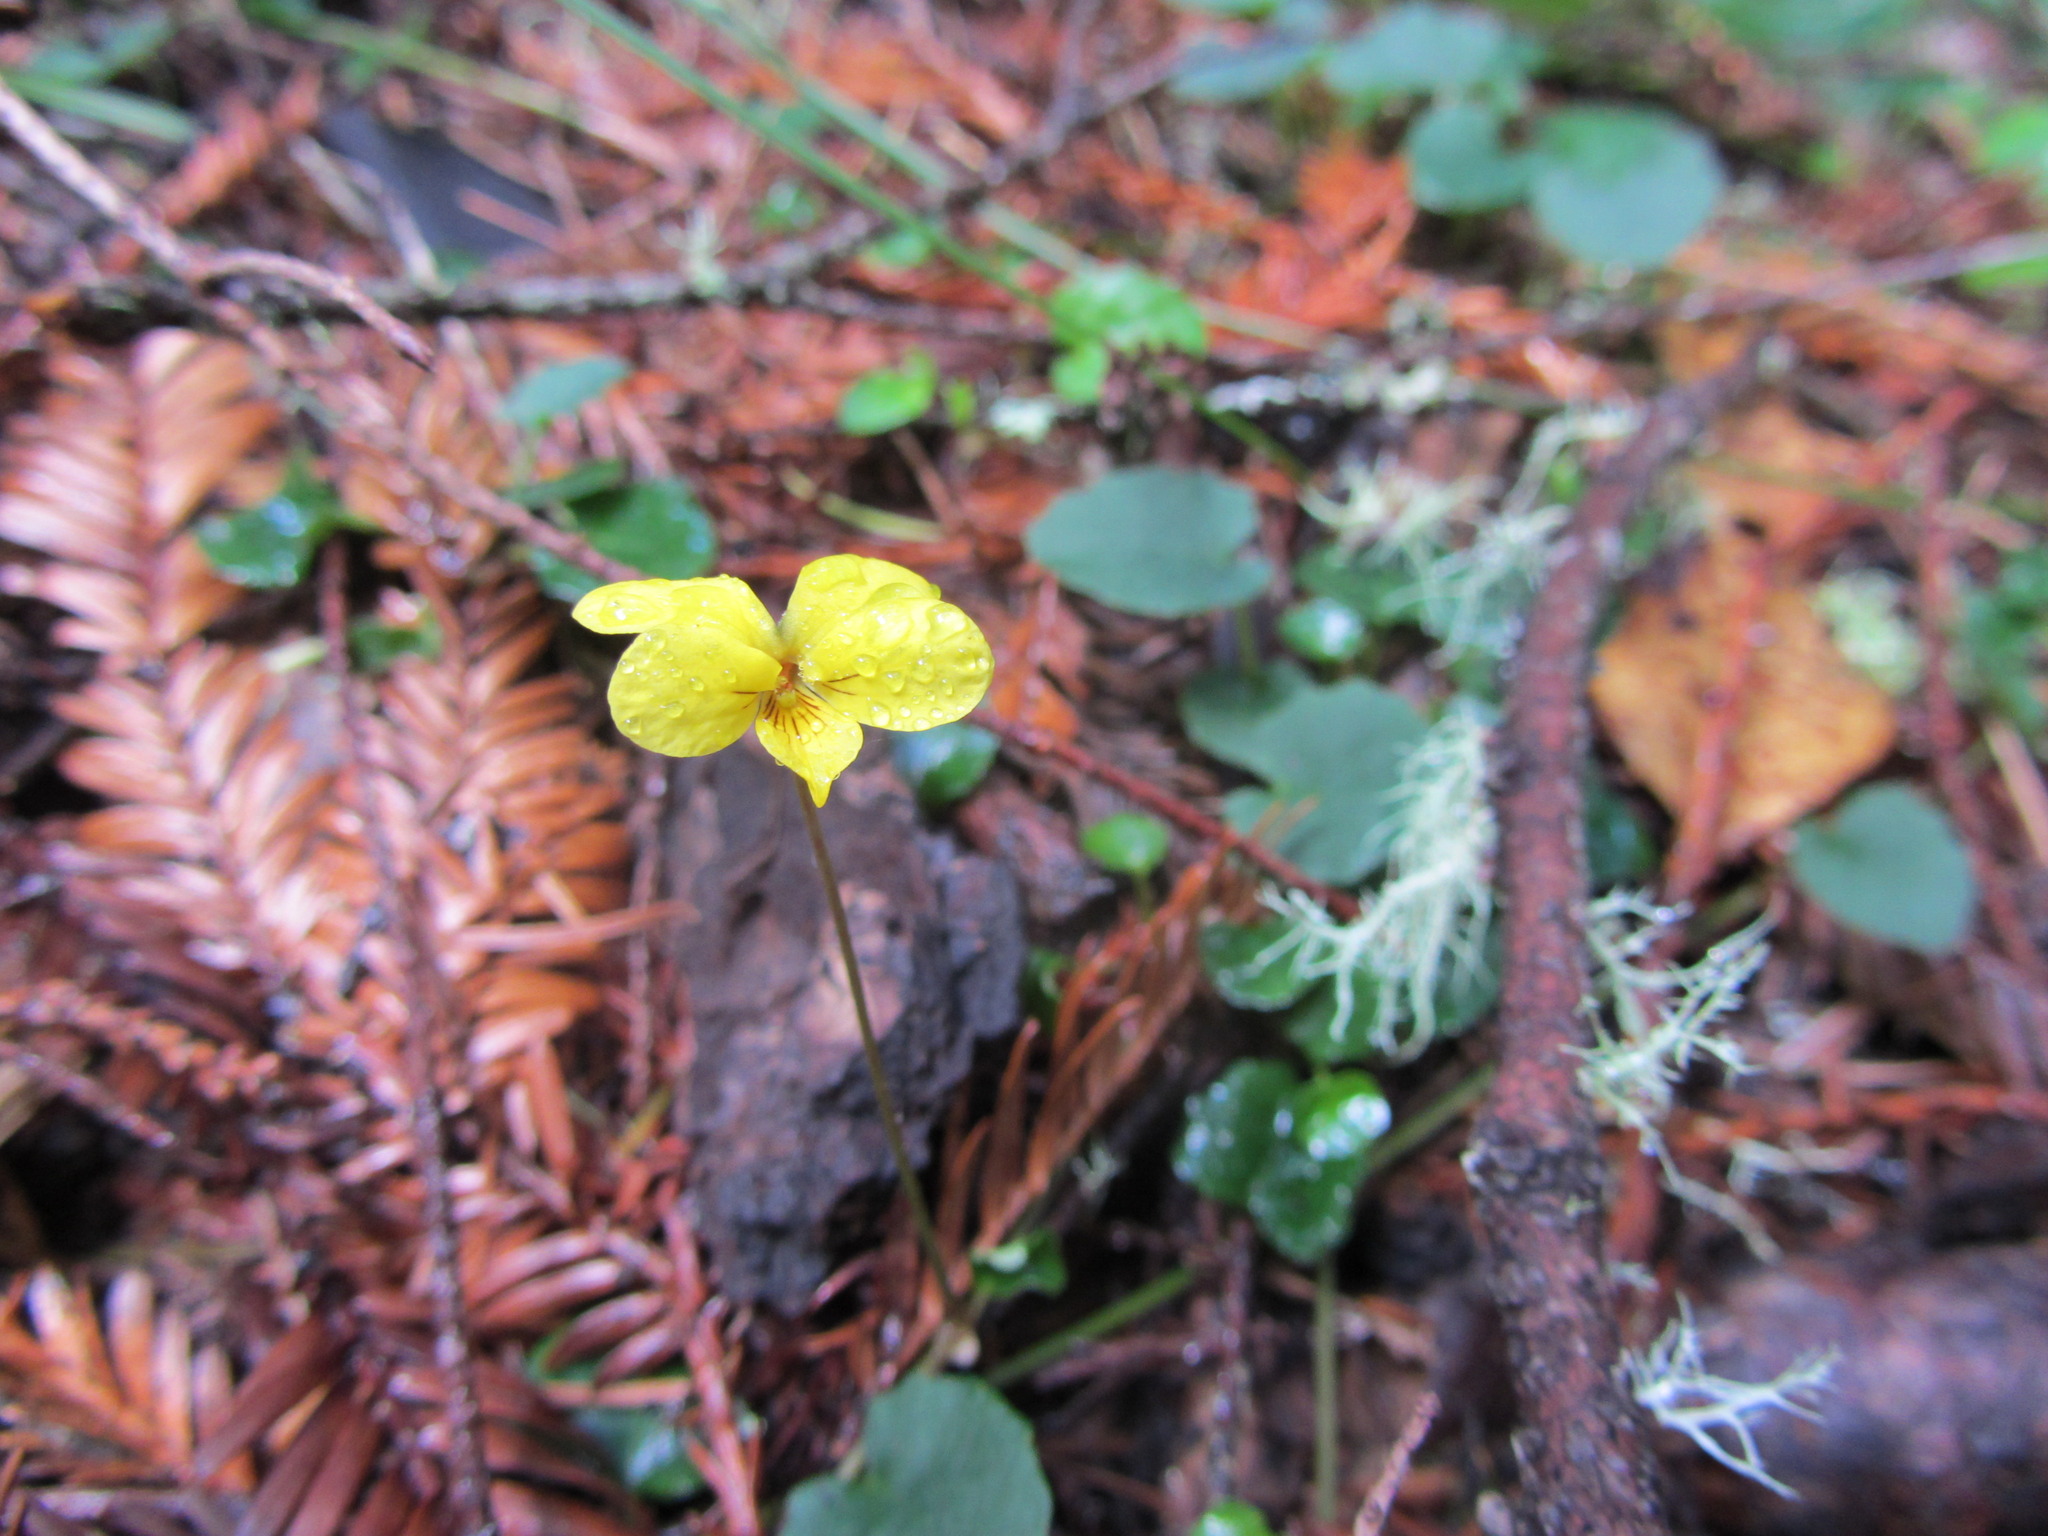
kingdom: Plantae
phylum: Tracheophyta
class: Magnoliopsida
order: Malpighiales
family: Violaceae
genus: Viola
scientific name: Viola sempervirens
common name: Evergreen violet
